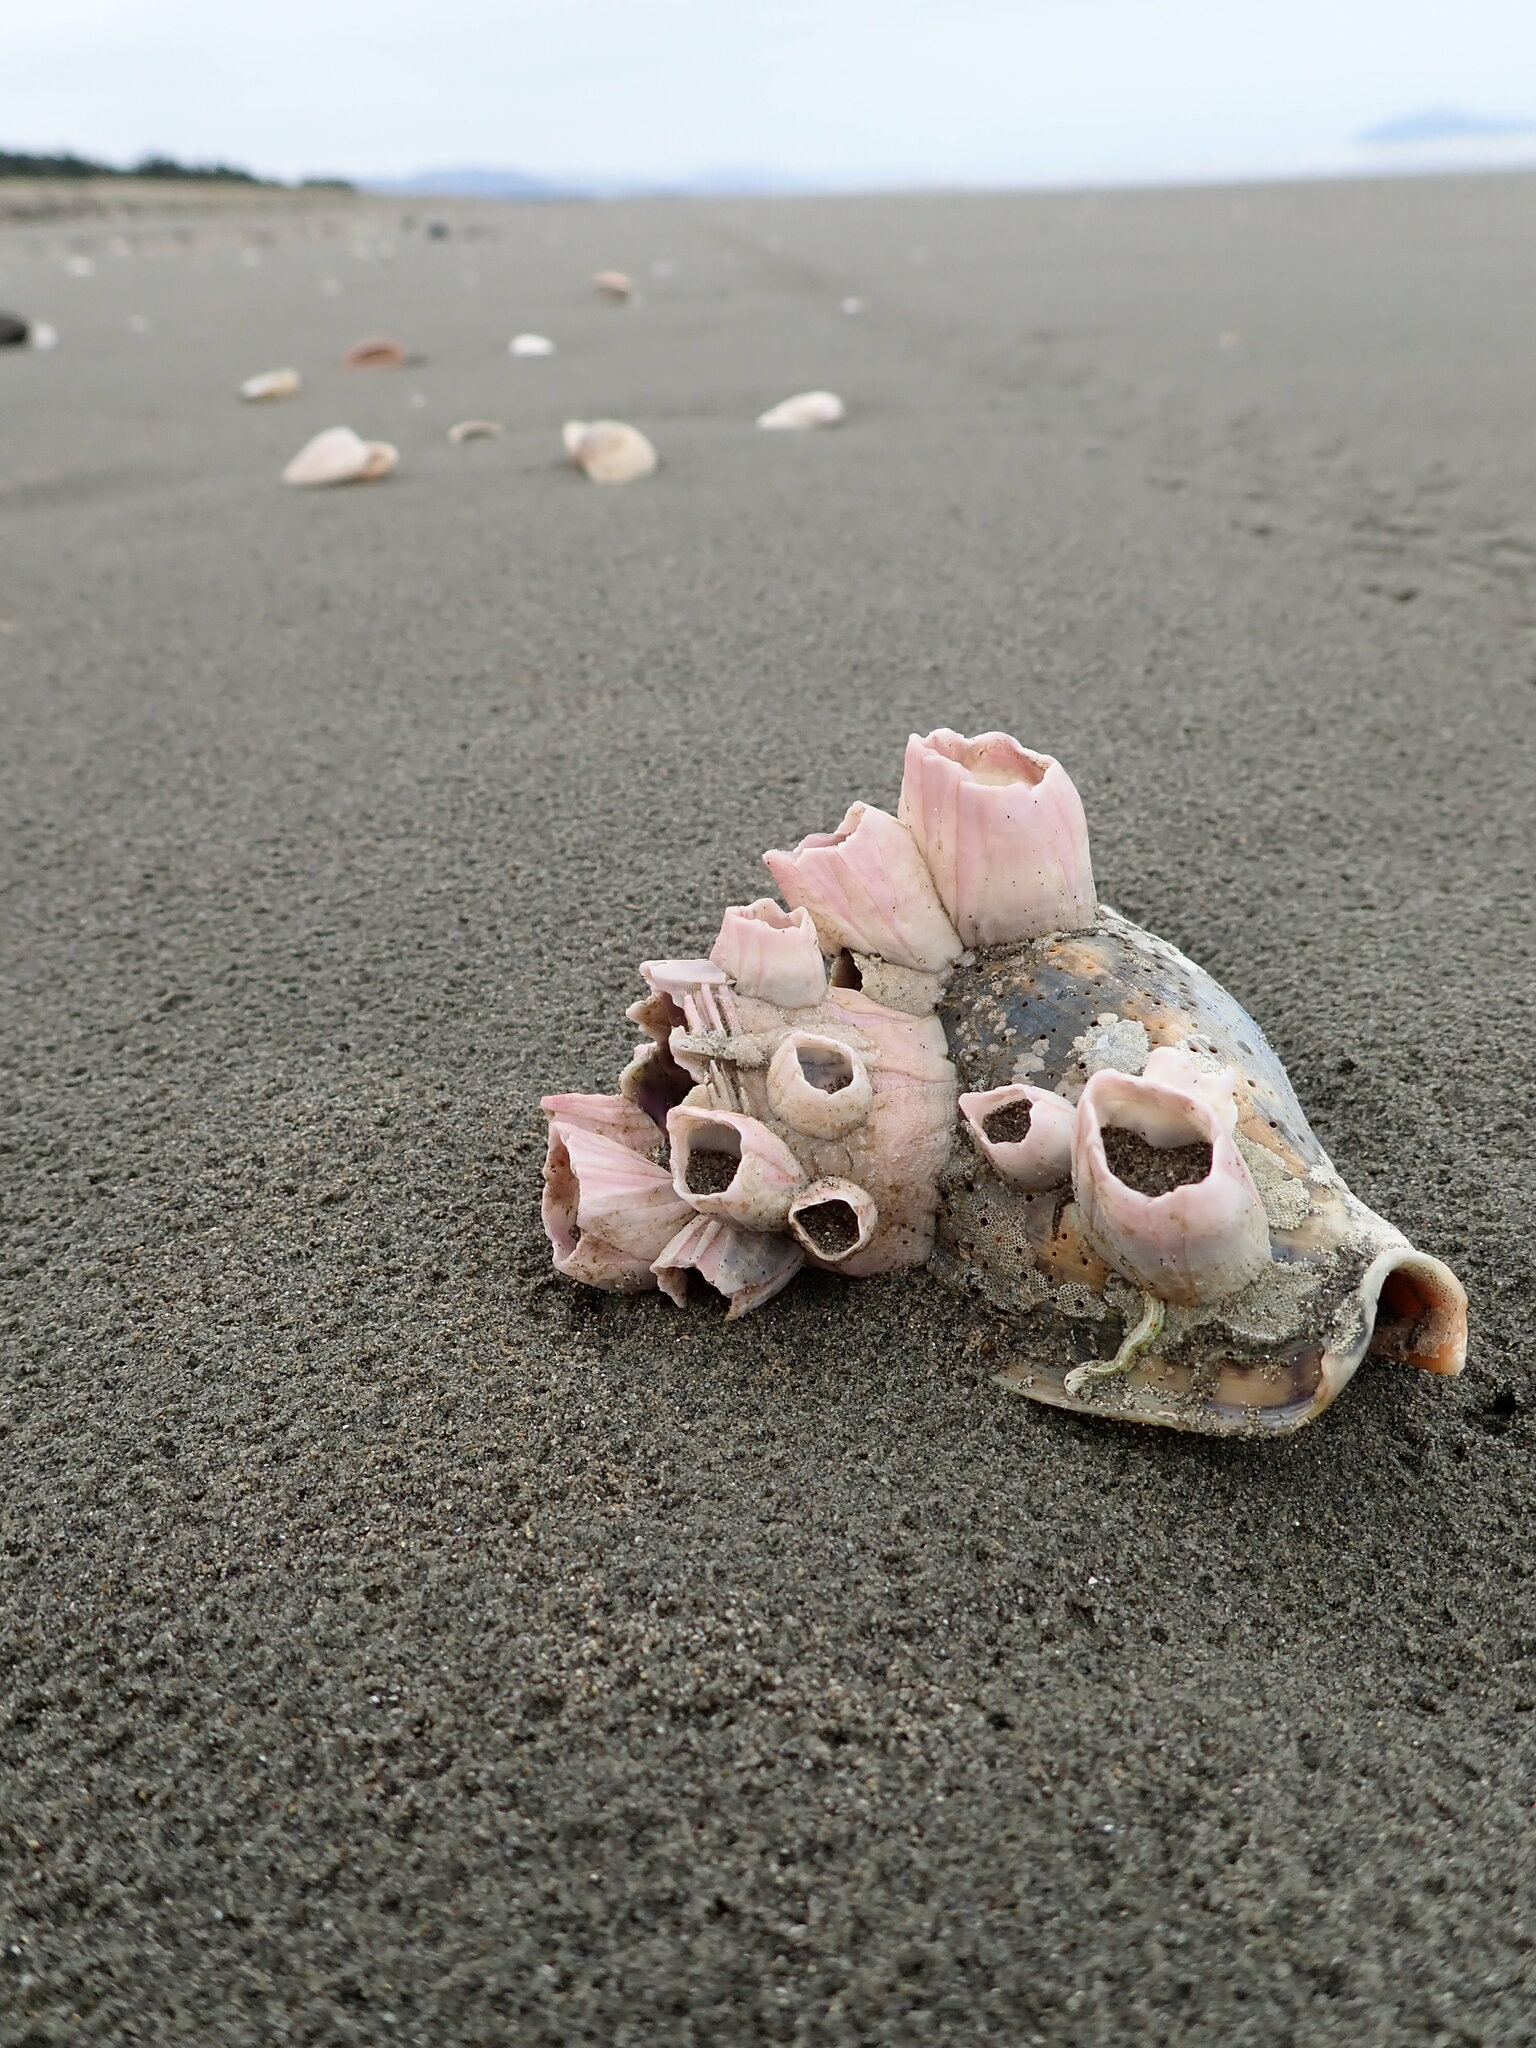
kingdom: Animalia
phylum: Arthropoda
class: Maxillopoda
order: Sessilia
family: Balanidae
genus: Notomegabalanus
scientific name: Notomegabalanus decorus
